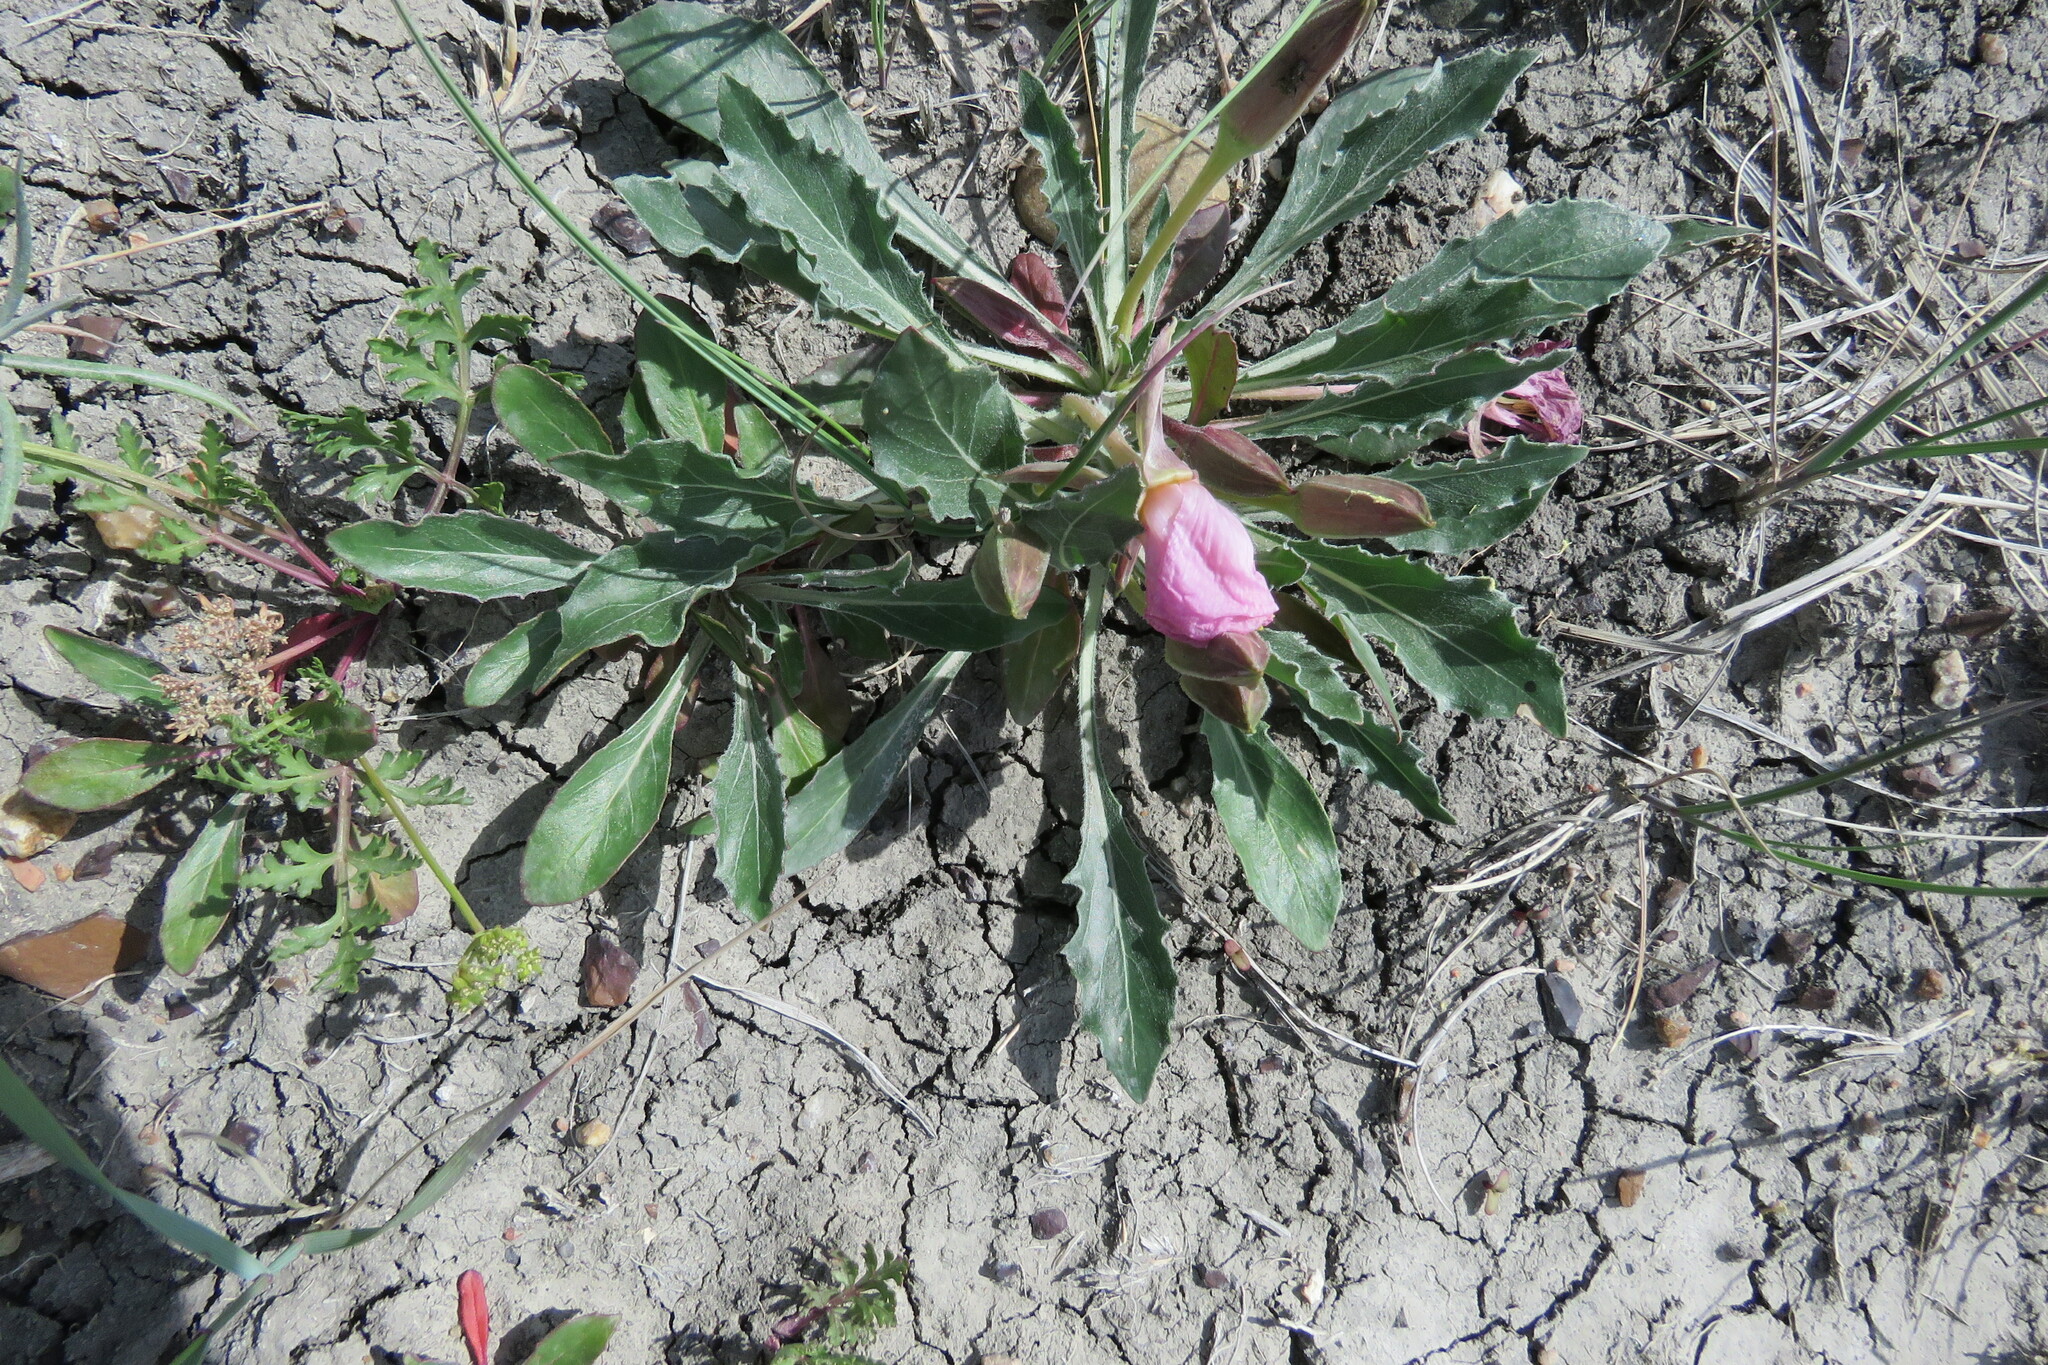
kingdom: Plantae
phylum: Tracheophyta
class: Magnoliopsida
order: Myrtales
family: Onagraceae
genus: Oenothera
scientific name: Oenothera cespitosa
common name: Tufted evening-primrose
